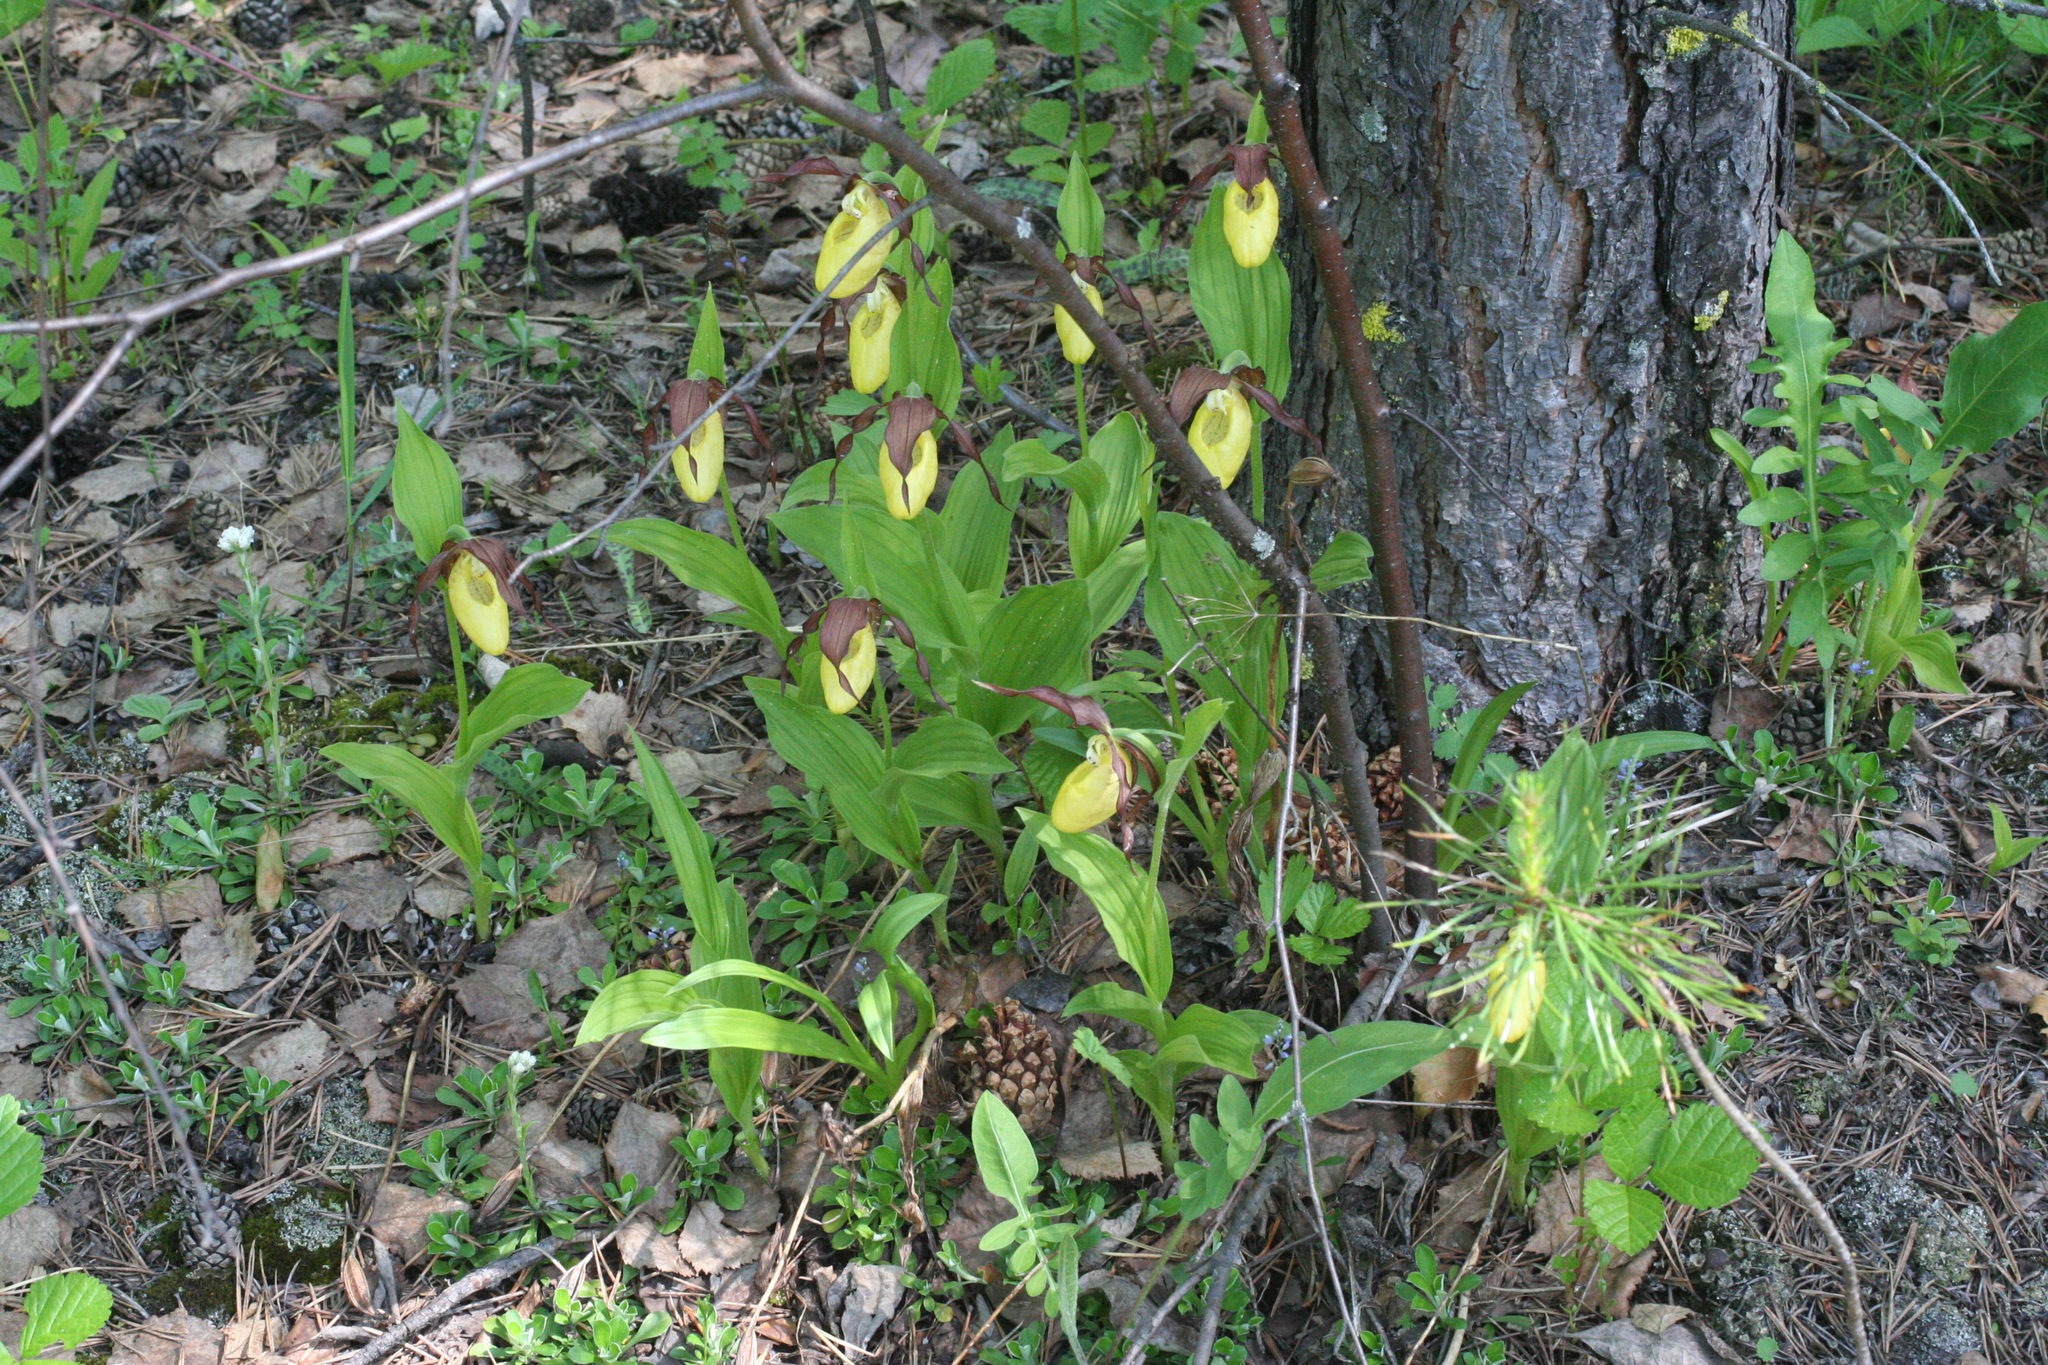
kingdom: Plantae
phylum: Tracheophyta
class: Liliopsida
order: Asparagales
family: Orchidaceae
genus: Cypripedium
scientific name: Cypripedium calceolus
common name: Lady's-slipper
